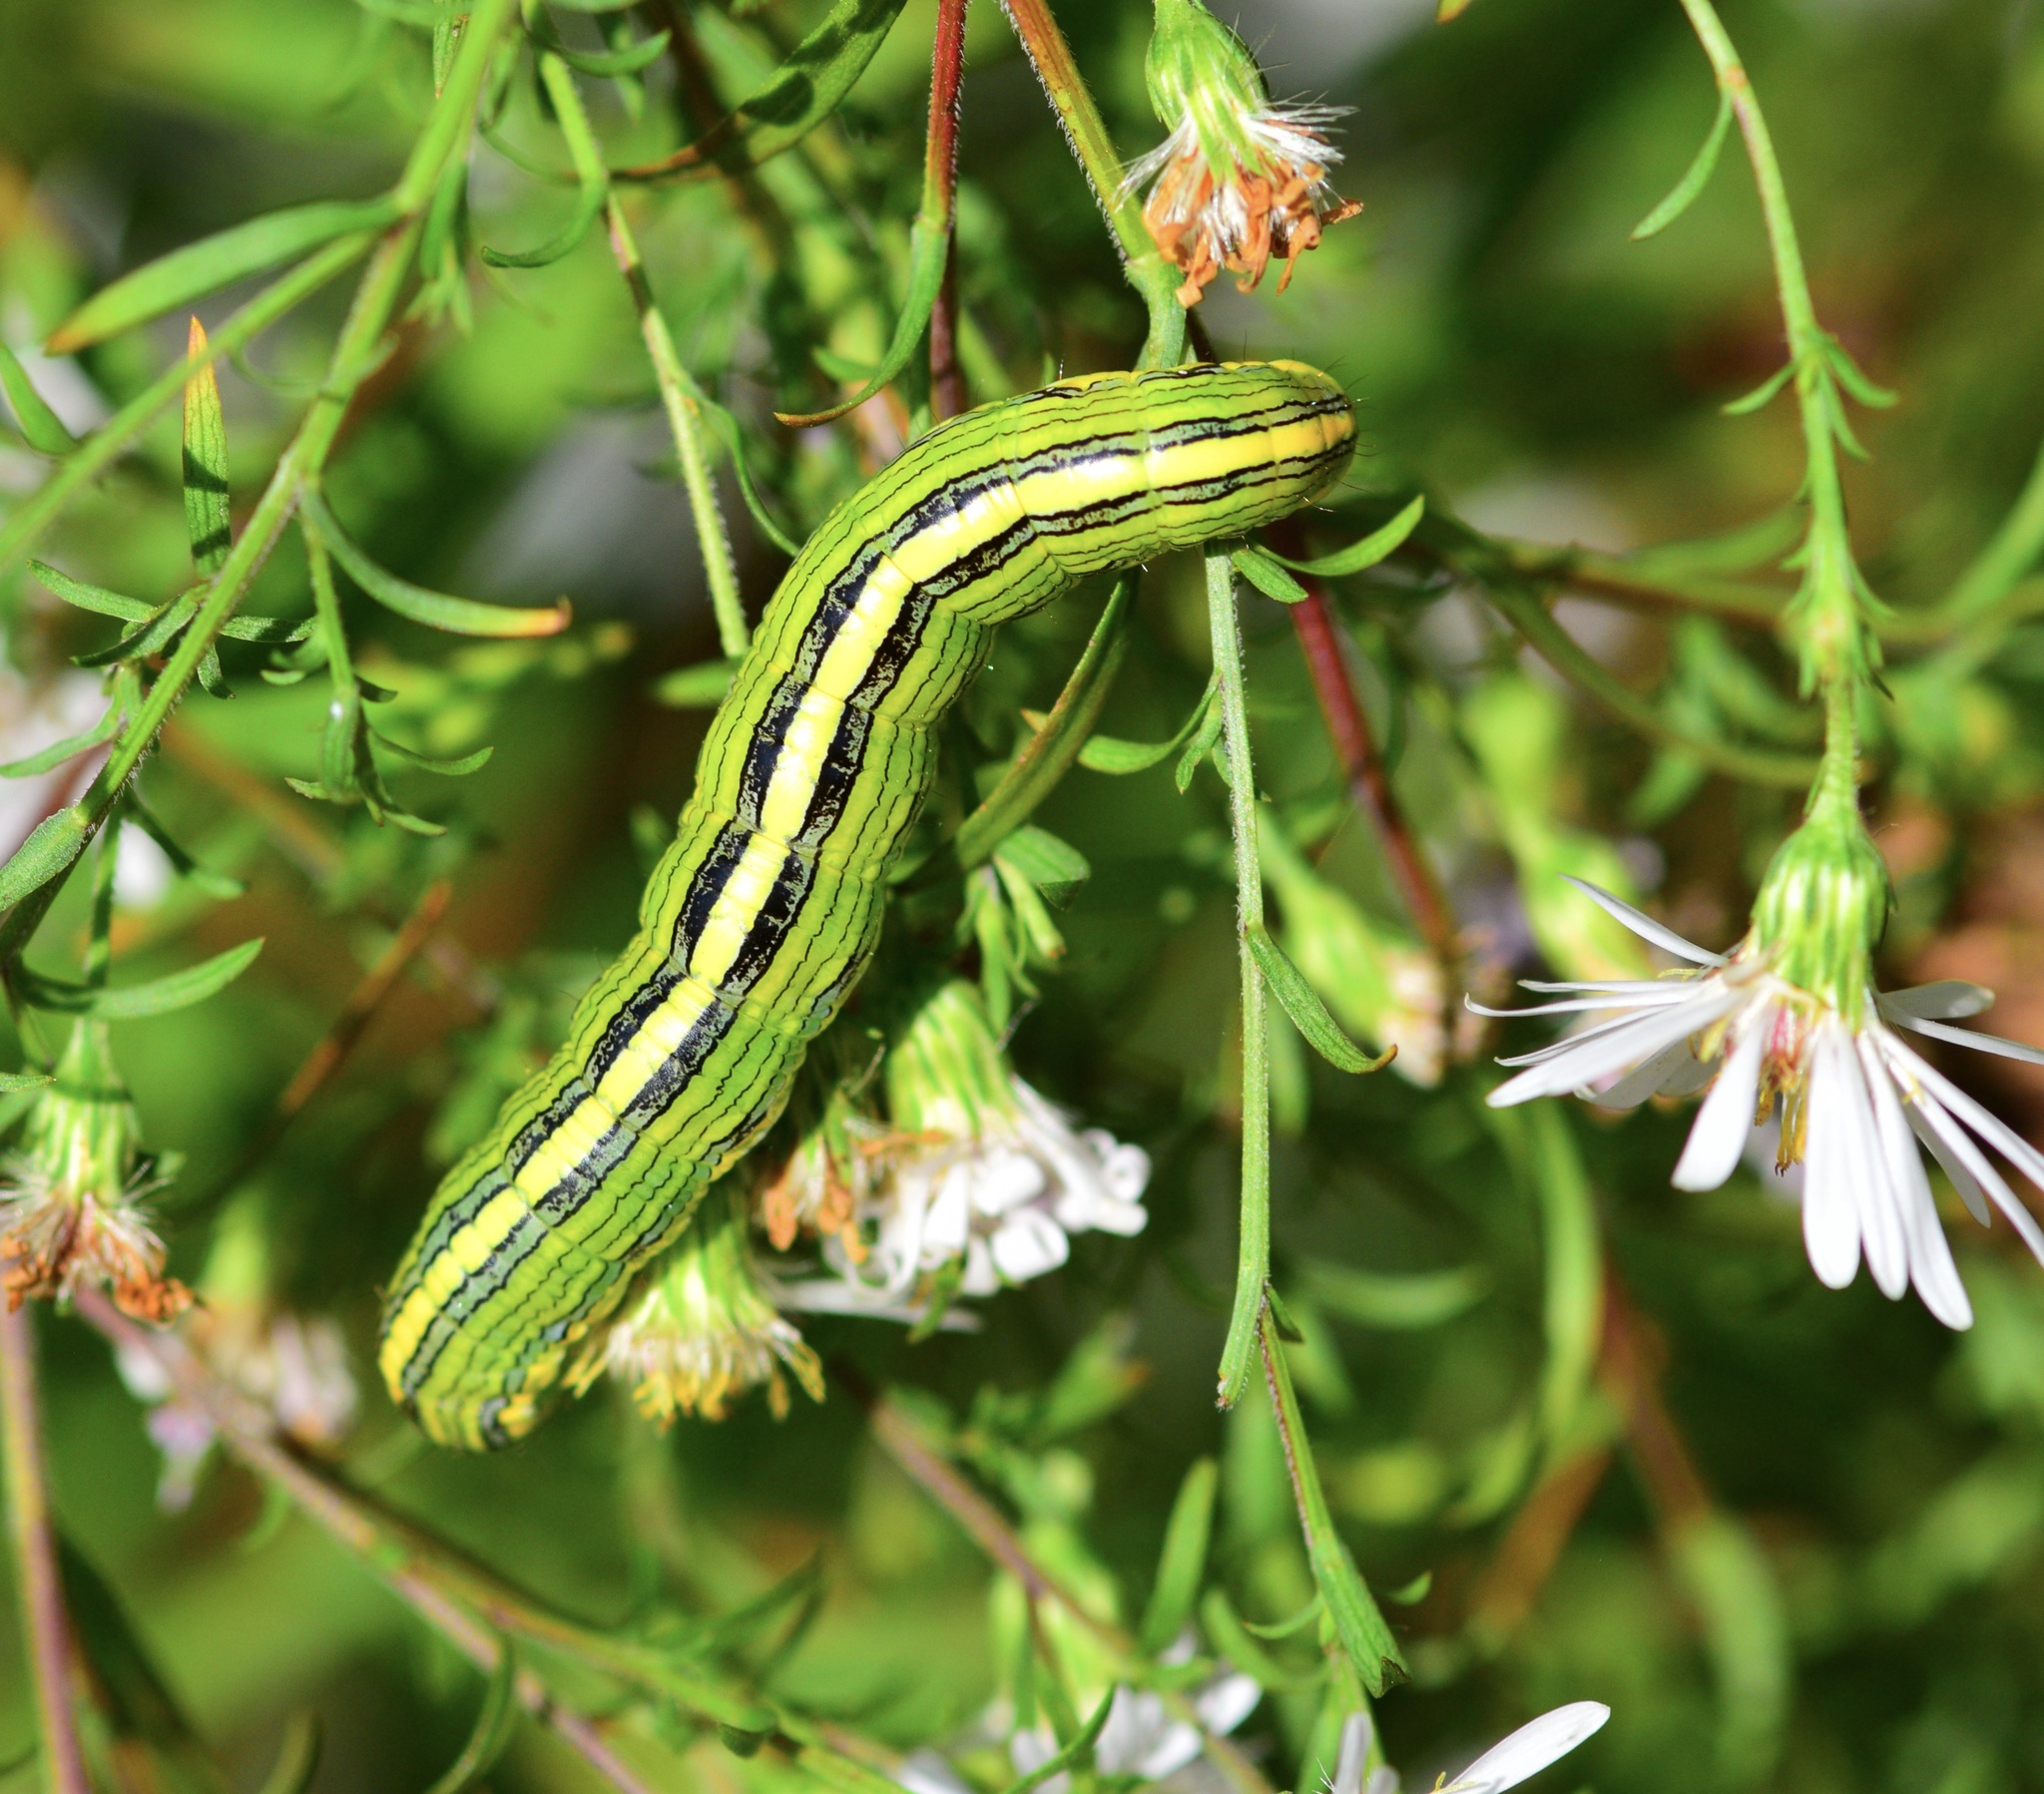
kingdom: Animalia
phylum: Arthropoda
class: Insecta
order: Lepidoptera
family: Noctuidae
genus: Cucullia
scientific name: Cucullia asteroides
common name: Asteroid moth
